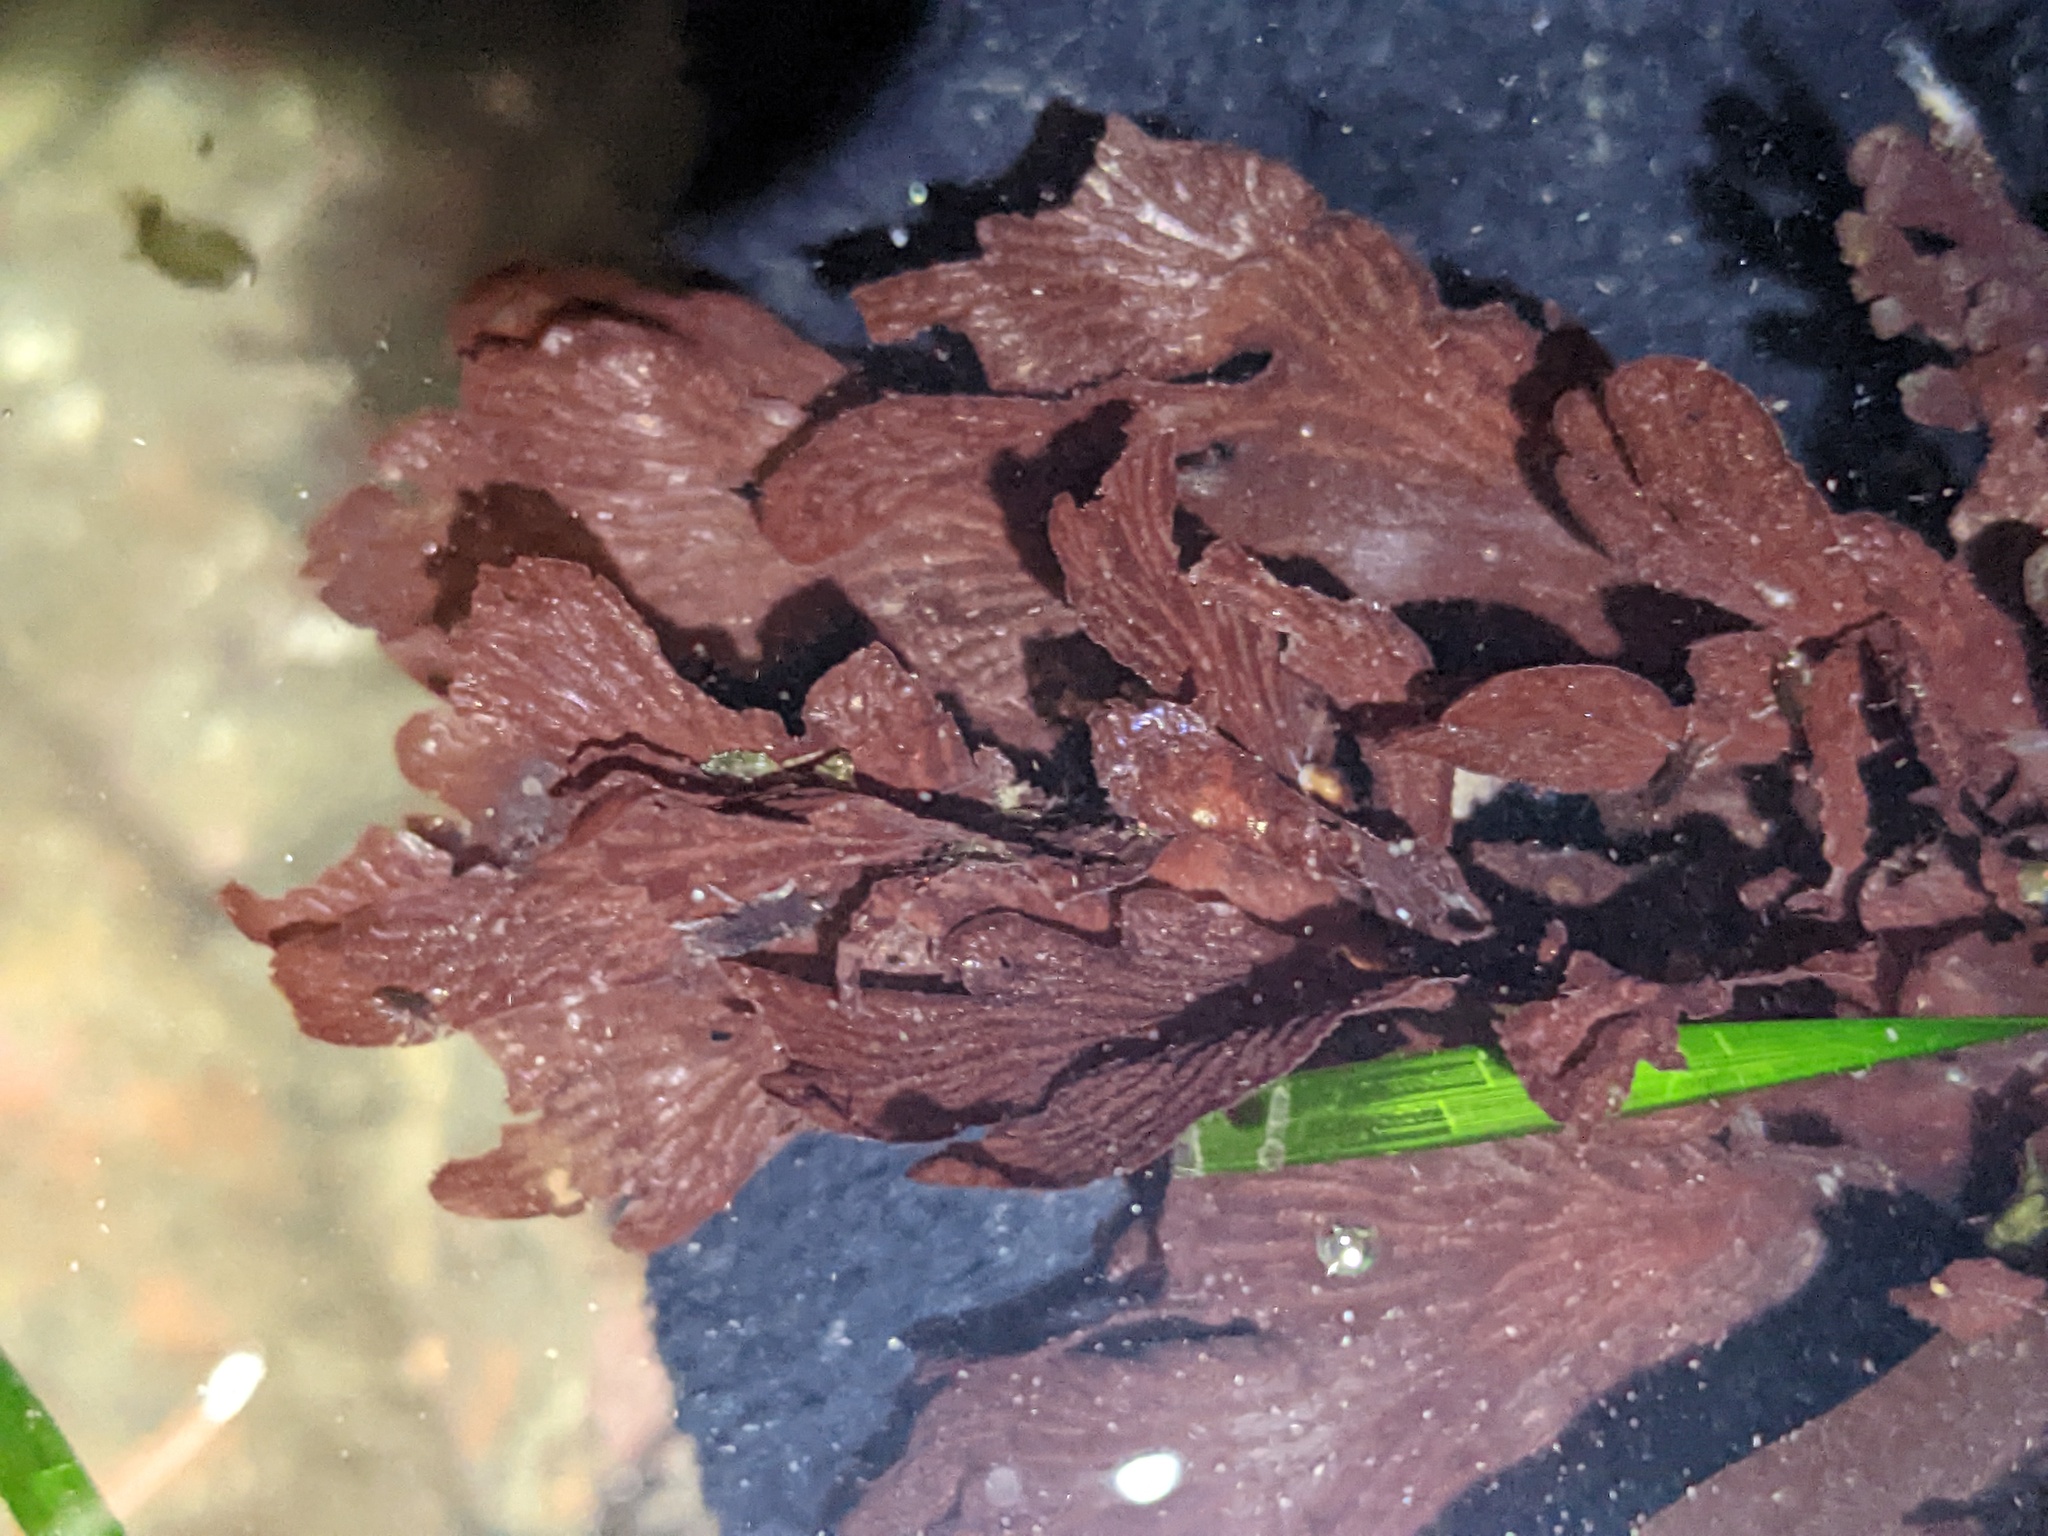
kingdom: Plantae
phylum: Rhodophyta
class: Florideophyceae
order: Ceramiales
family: Delesseriaceae
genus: Hymenena
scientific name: Hymenena flabelligera
